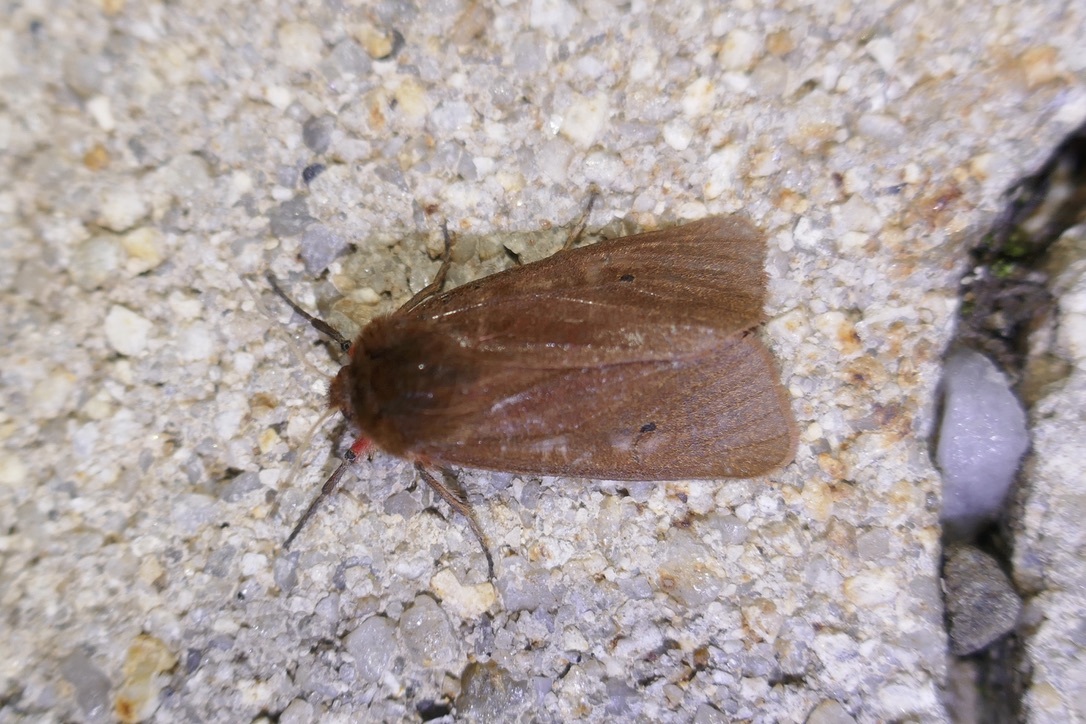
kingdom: Animalia
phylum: Arthropoda
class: Insecta
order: Lepidoptera
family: Erebidae
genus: Phragmatobia
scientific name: Phragmatobia fuliginosa
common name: Ruby tiger
